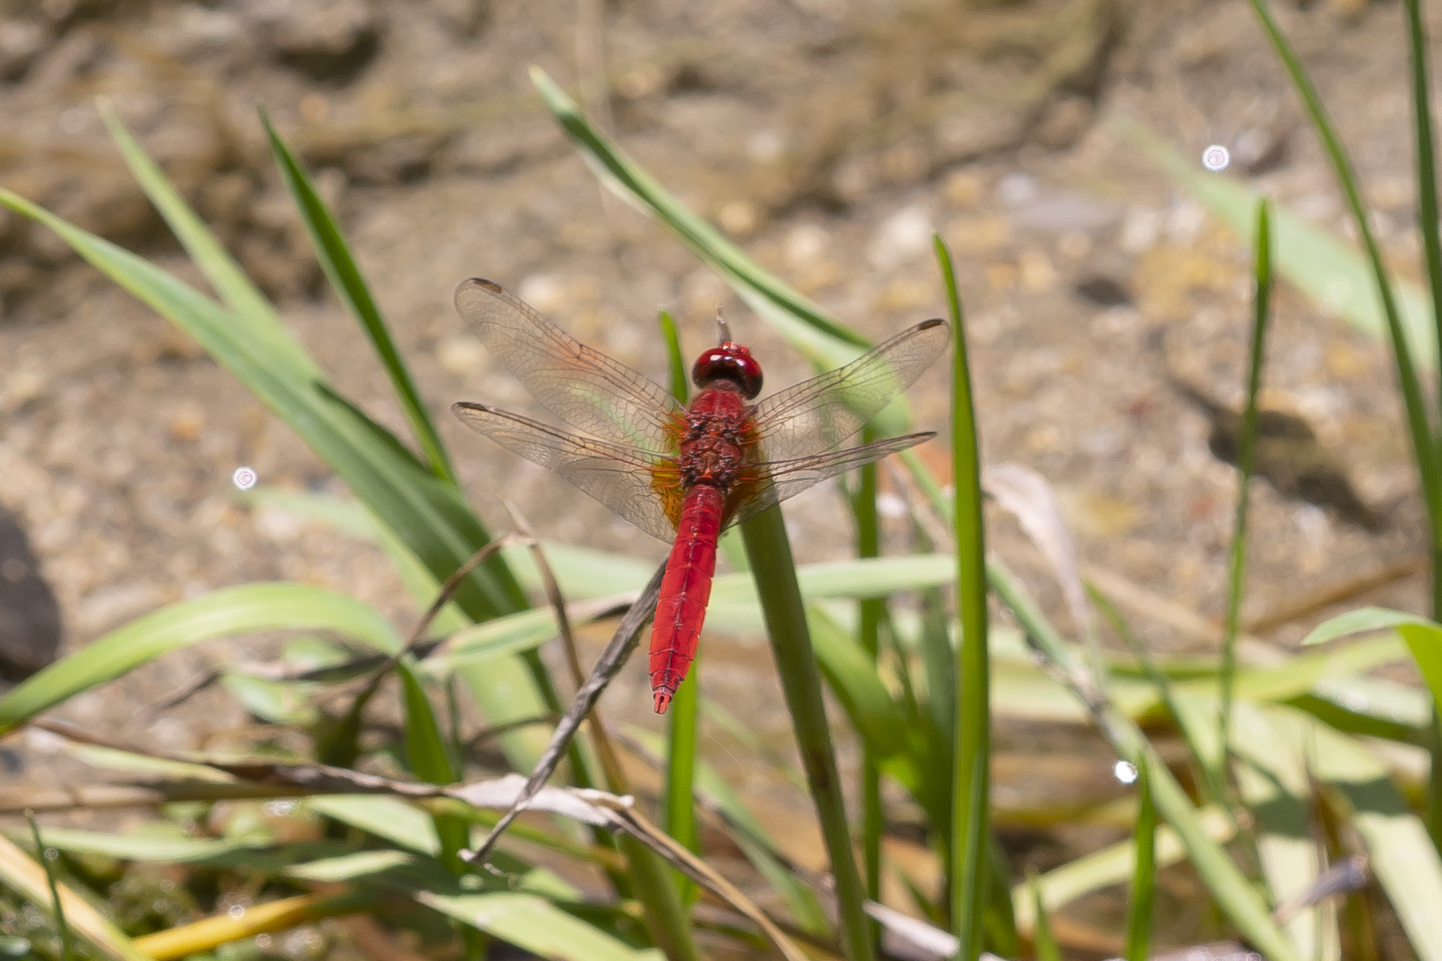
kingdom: Animalia
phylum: Arthropoda
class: Insecta
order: Odonata
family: Libellulidae
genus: Crocothemis
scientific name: Crocothemis erythraea
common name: Scarlet dragonfly
